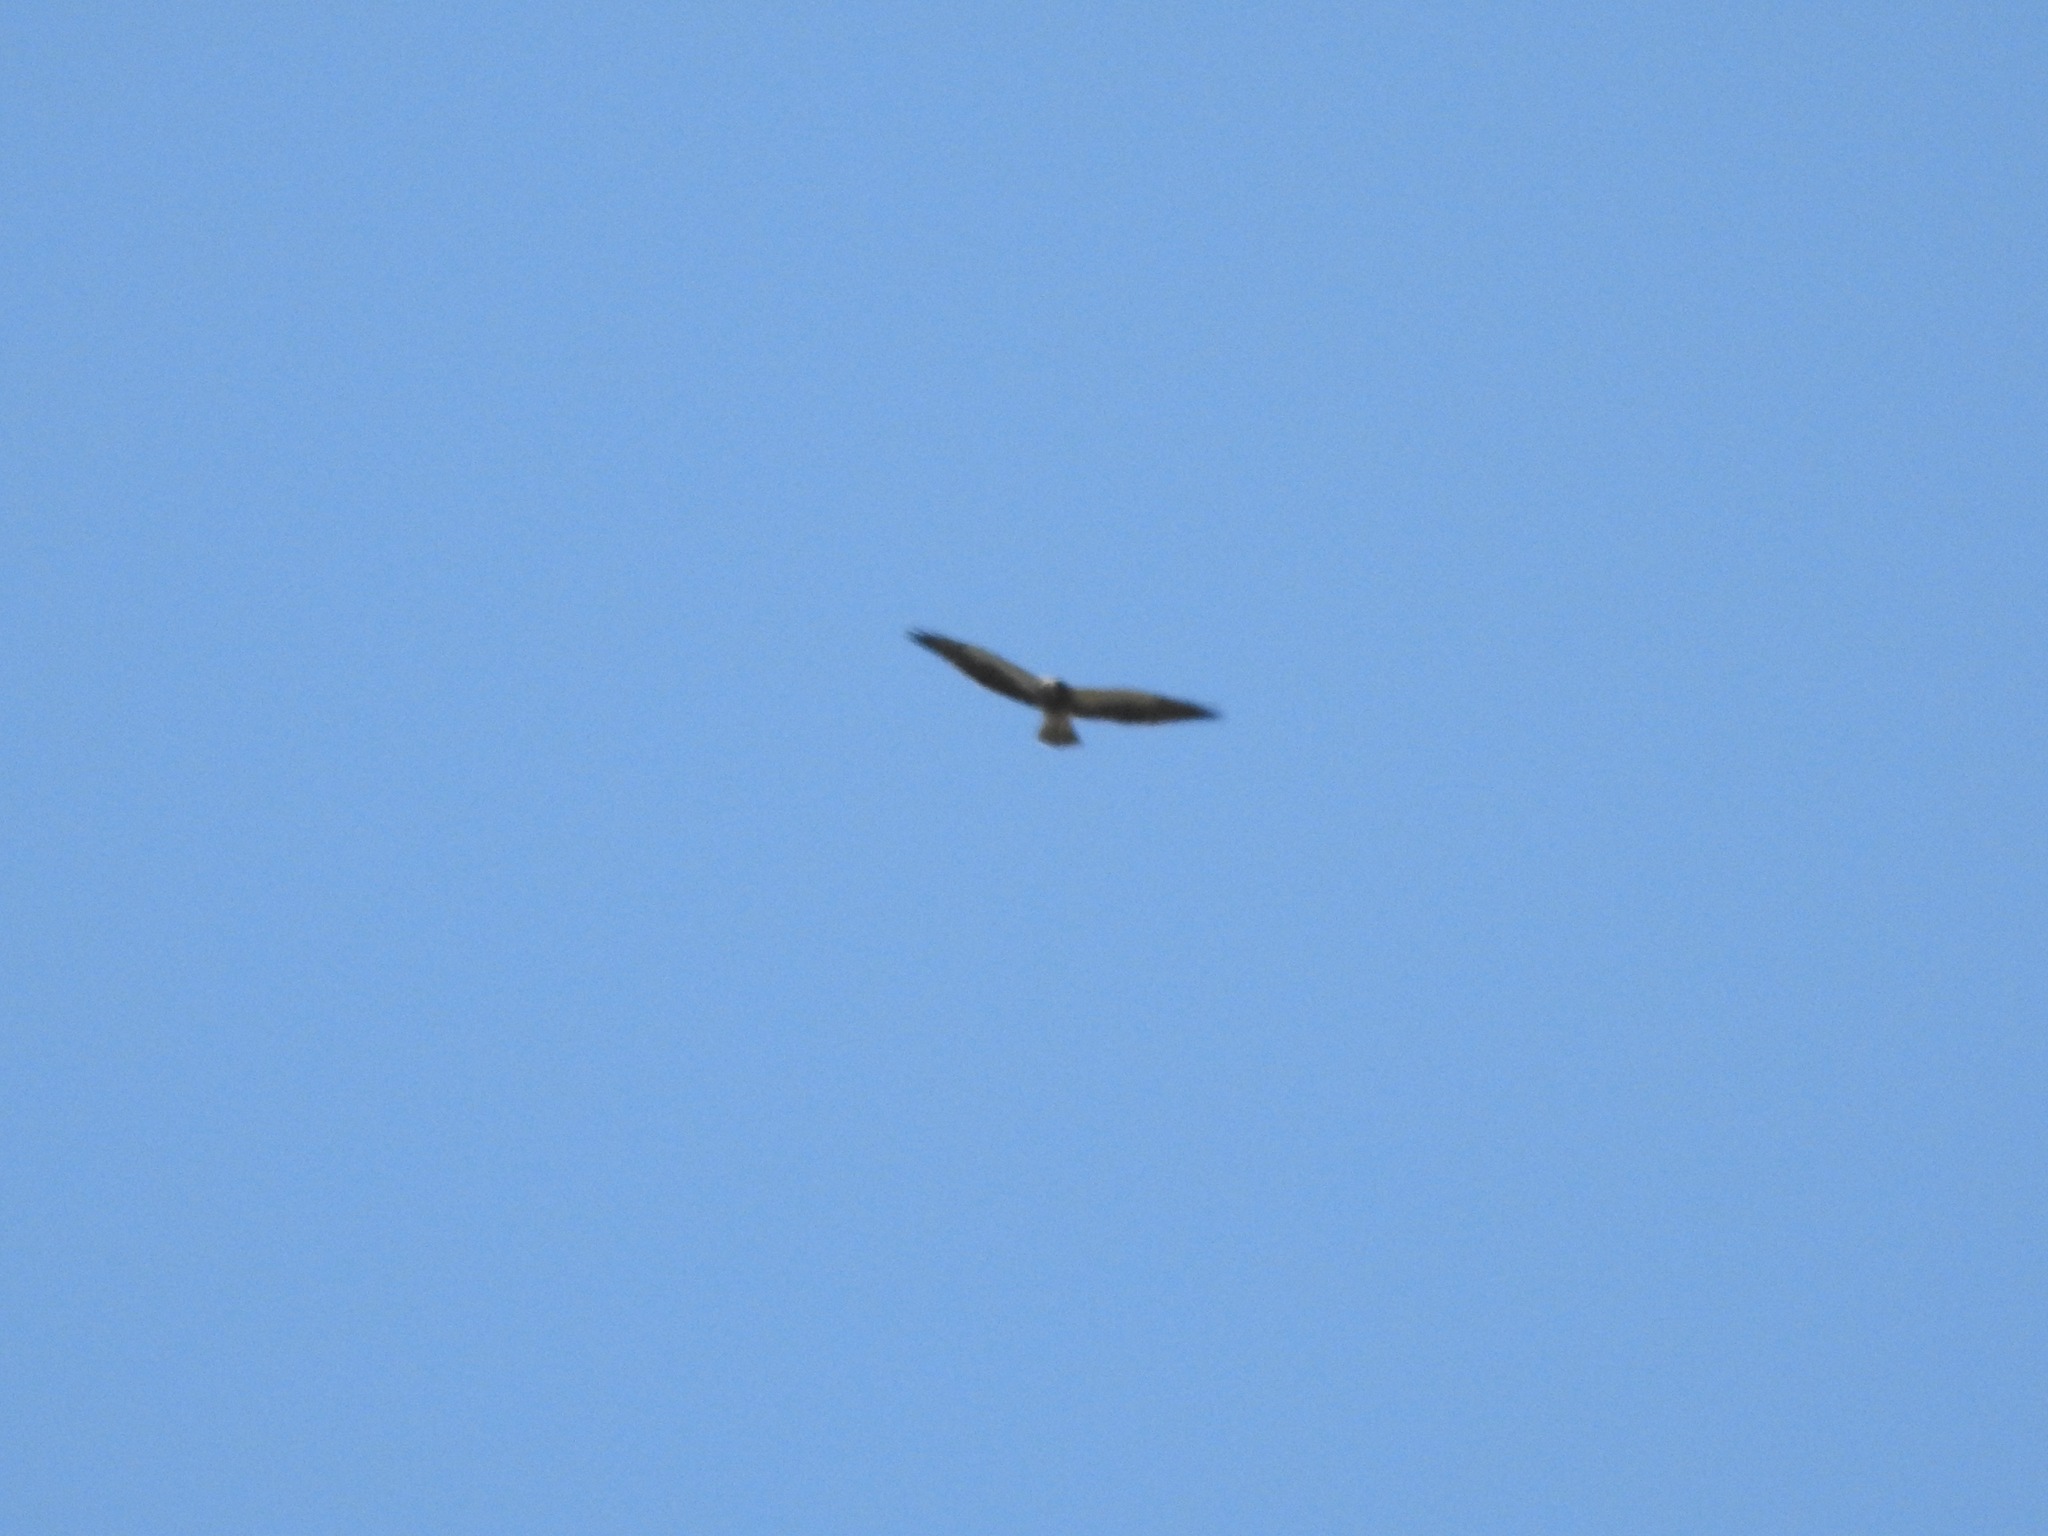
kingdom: Animalia
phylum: Chordata
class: Aves
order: Accipitriformes
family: Accipitridae
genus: Buteo
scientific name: Buteo swainsoni
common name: Swainson's hawk
